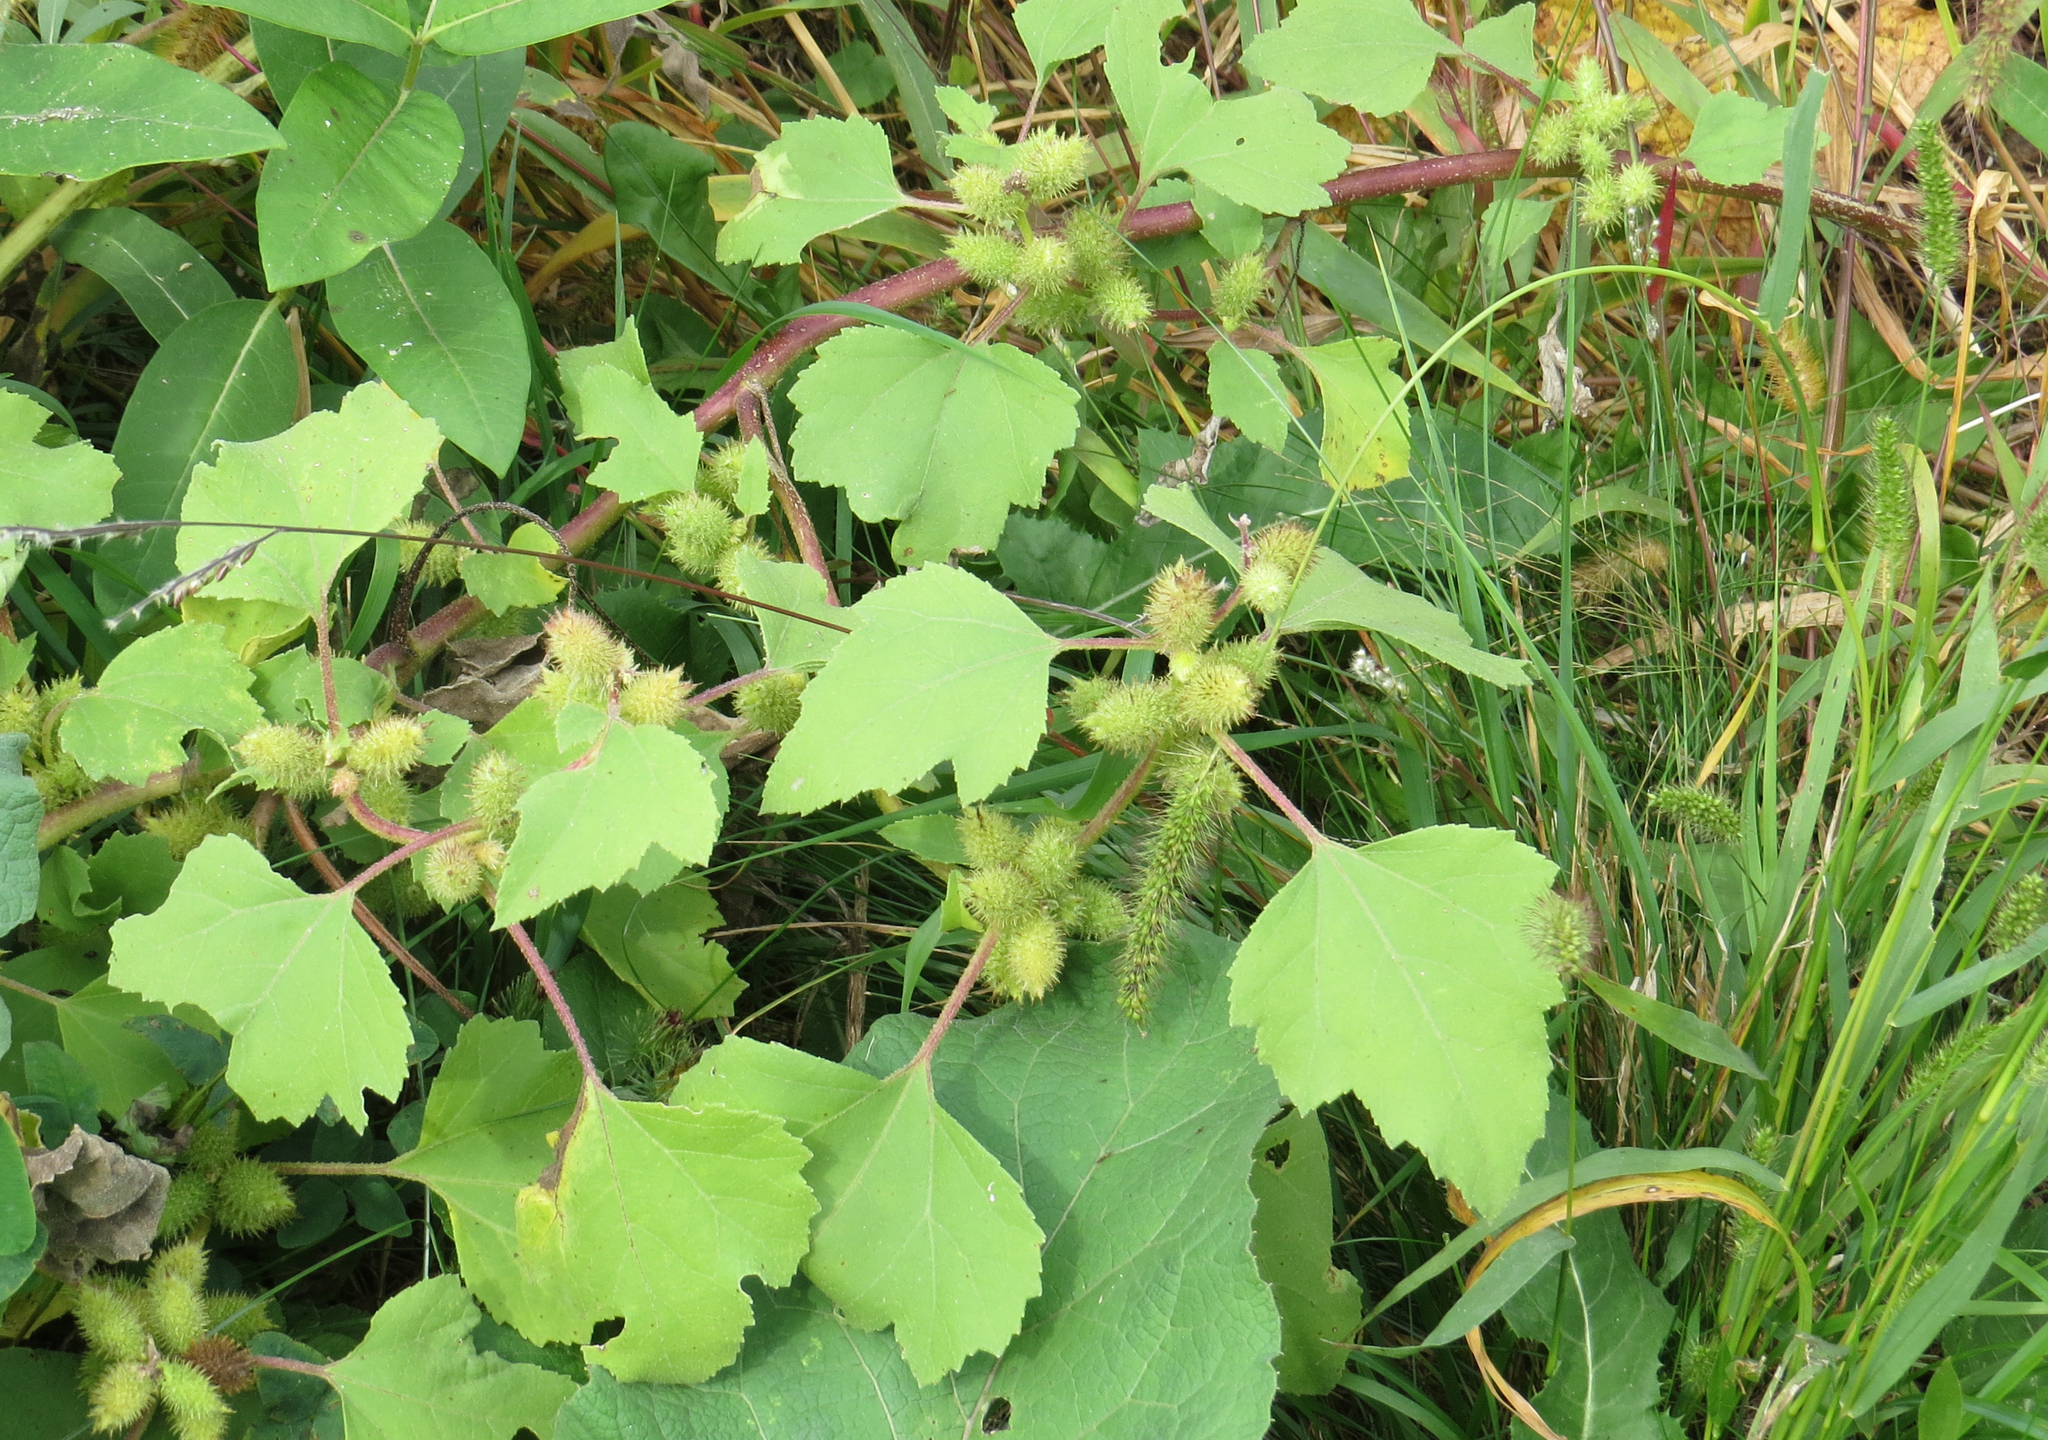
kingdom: Plantae
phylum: Tracheophyta
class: Magnoliopsida
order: Asterales
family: Asteraceae
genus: Xanthium
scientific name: Xanthium strumarium
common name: Rough cocklebur
